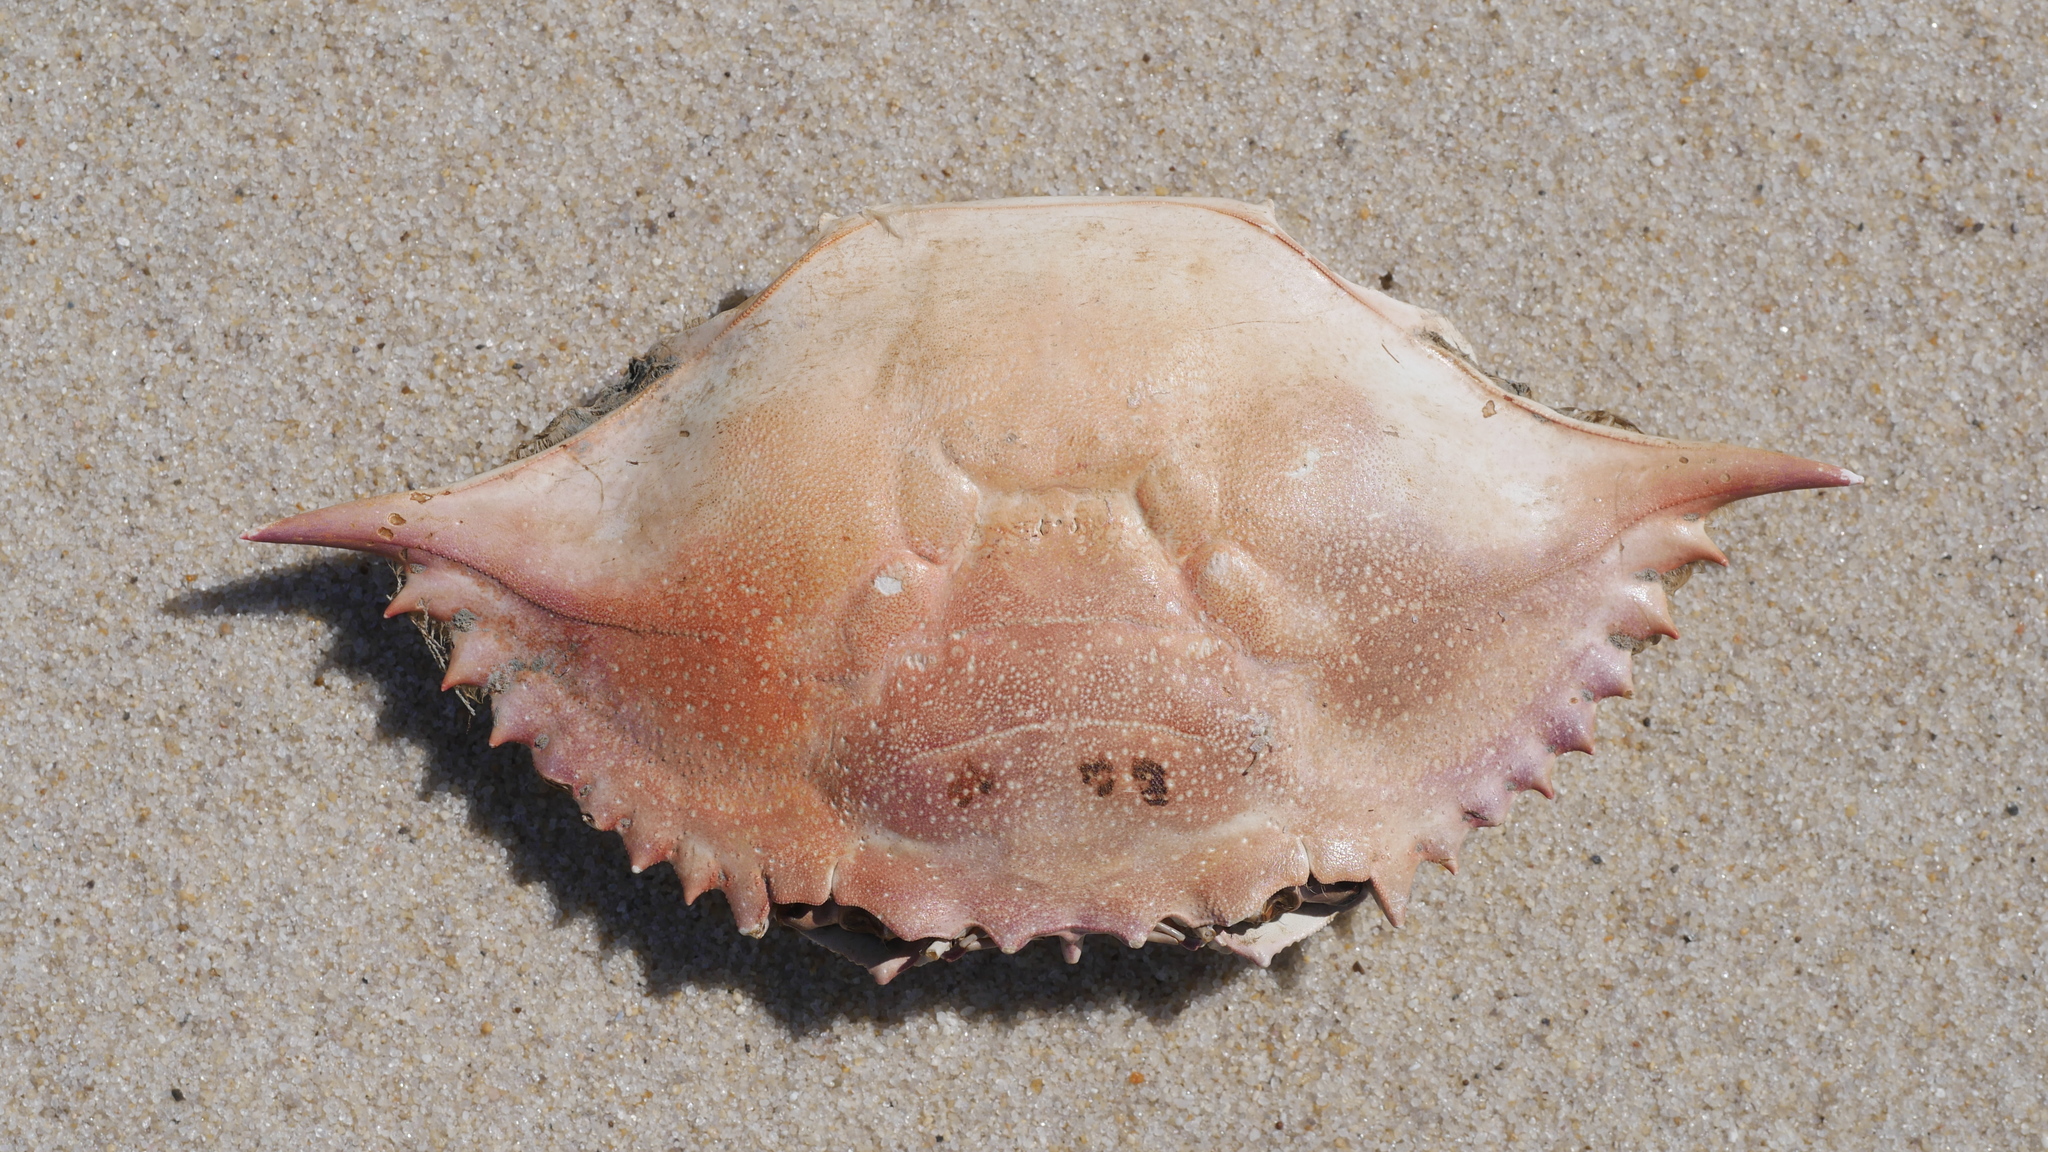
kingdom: Animalia
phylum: Arthropoda
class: Malacostraca
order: Decapoda
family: Portunidae
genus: Callinectes
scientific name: Callinectes sapidus
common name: Blue crab
